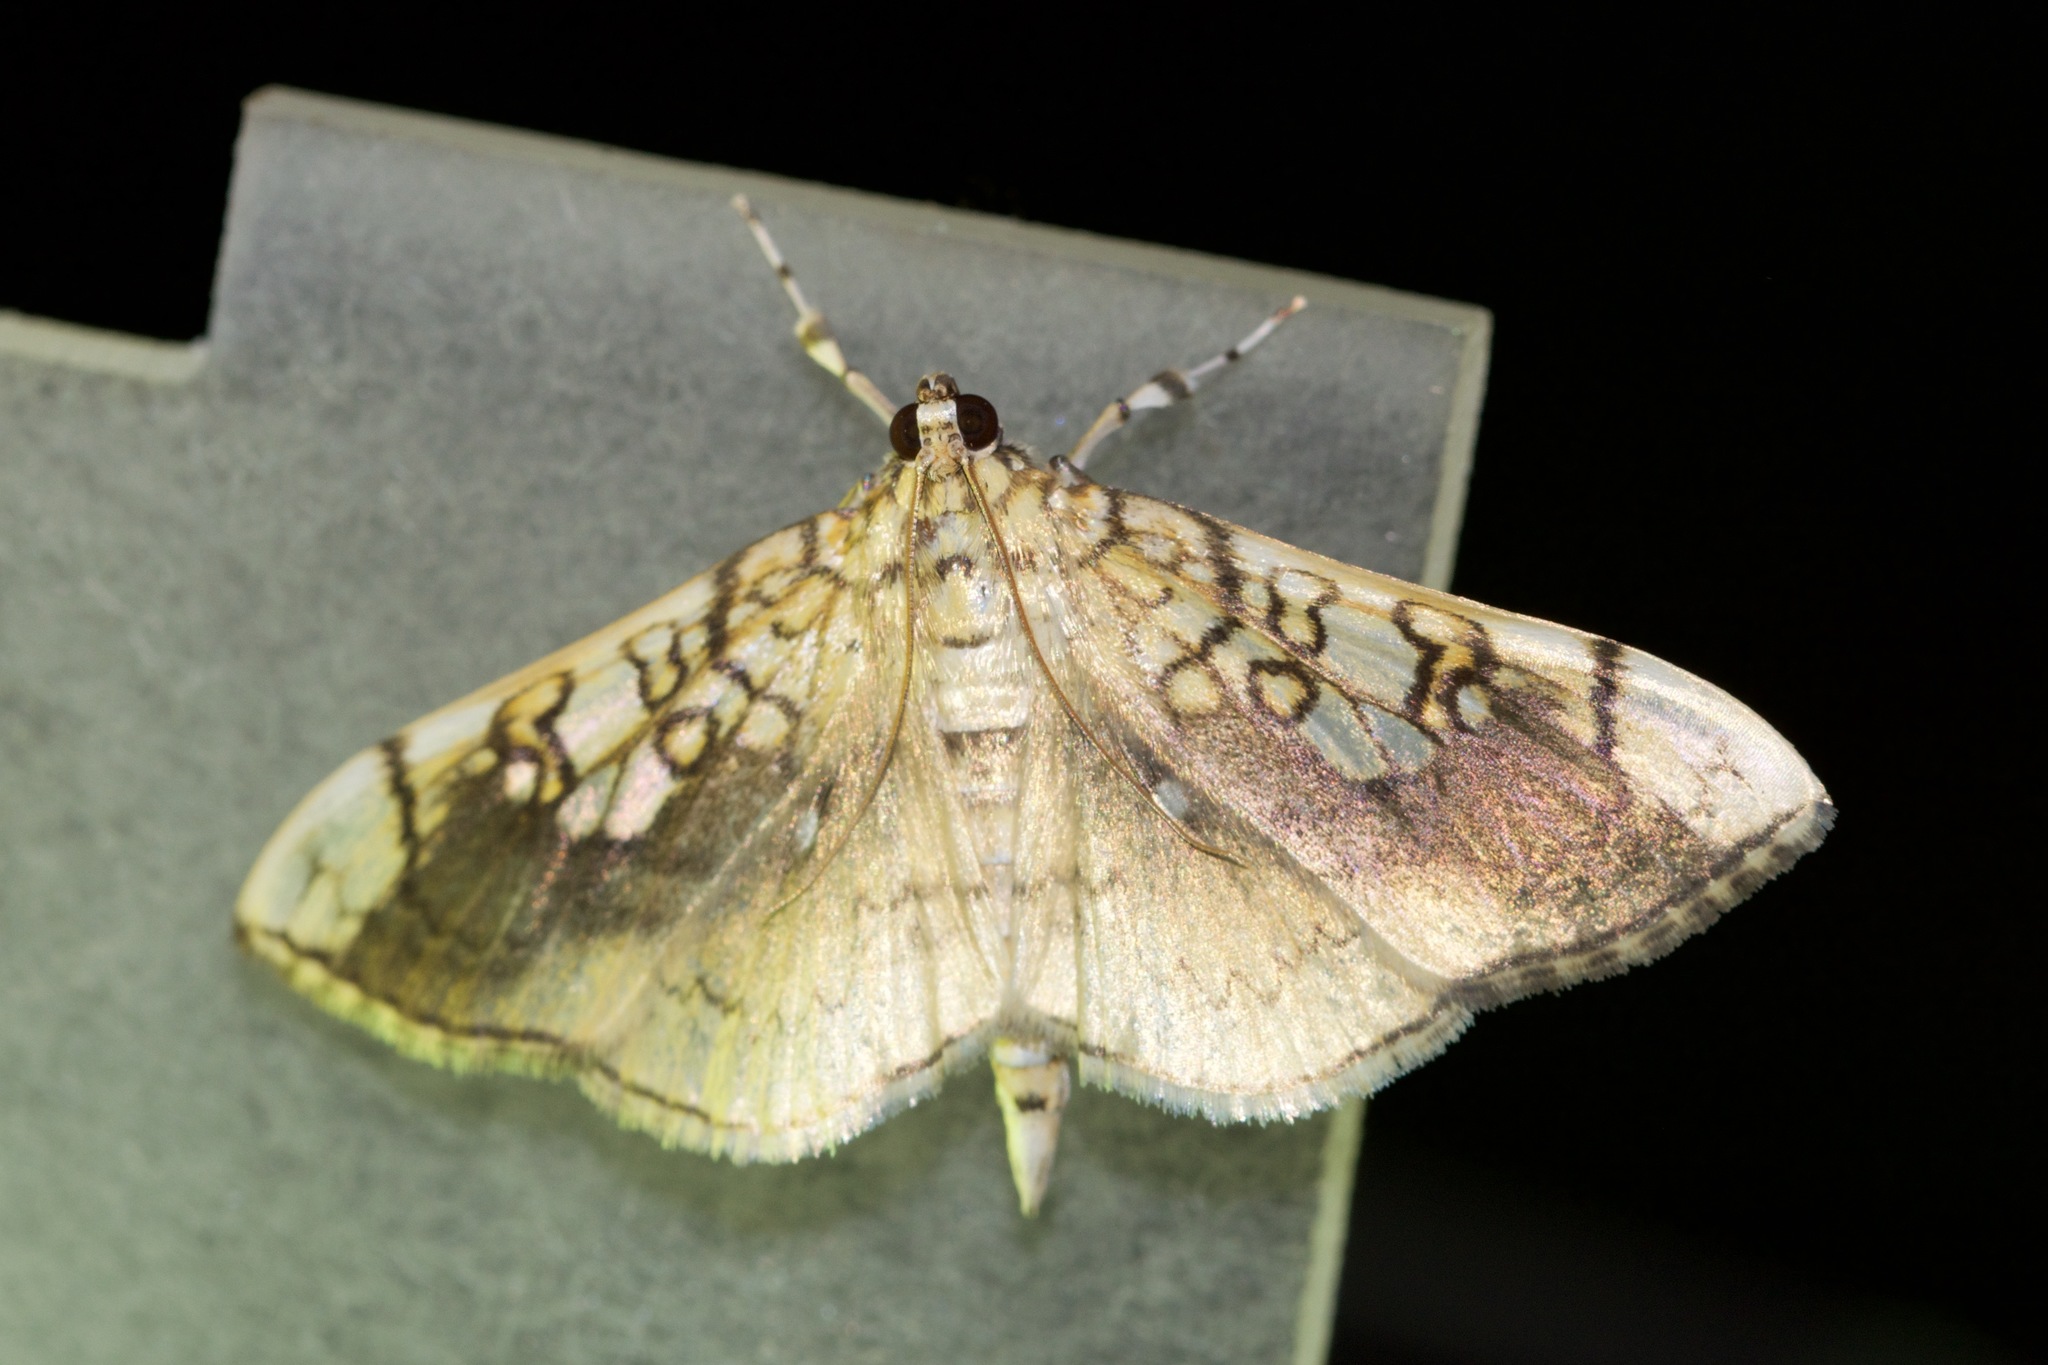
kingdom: Animalia
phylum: Arthropoda
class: Insecta
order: Lepidoptera
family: Crambidae
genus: Pantographa
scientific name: Pantographa limata
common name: Basswood leafroller moth
